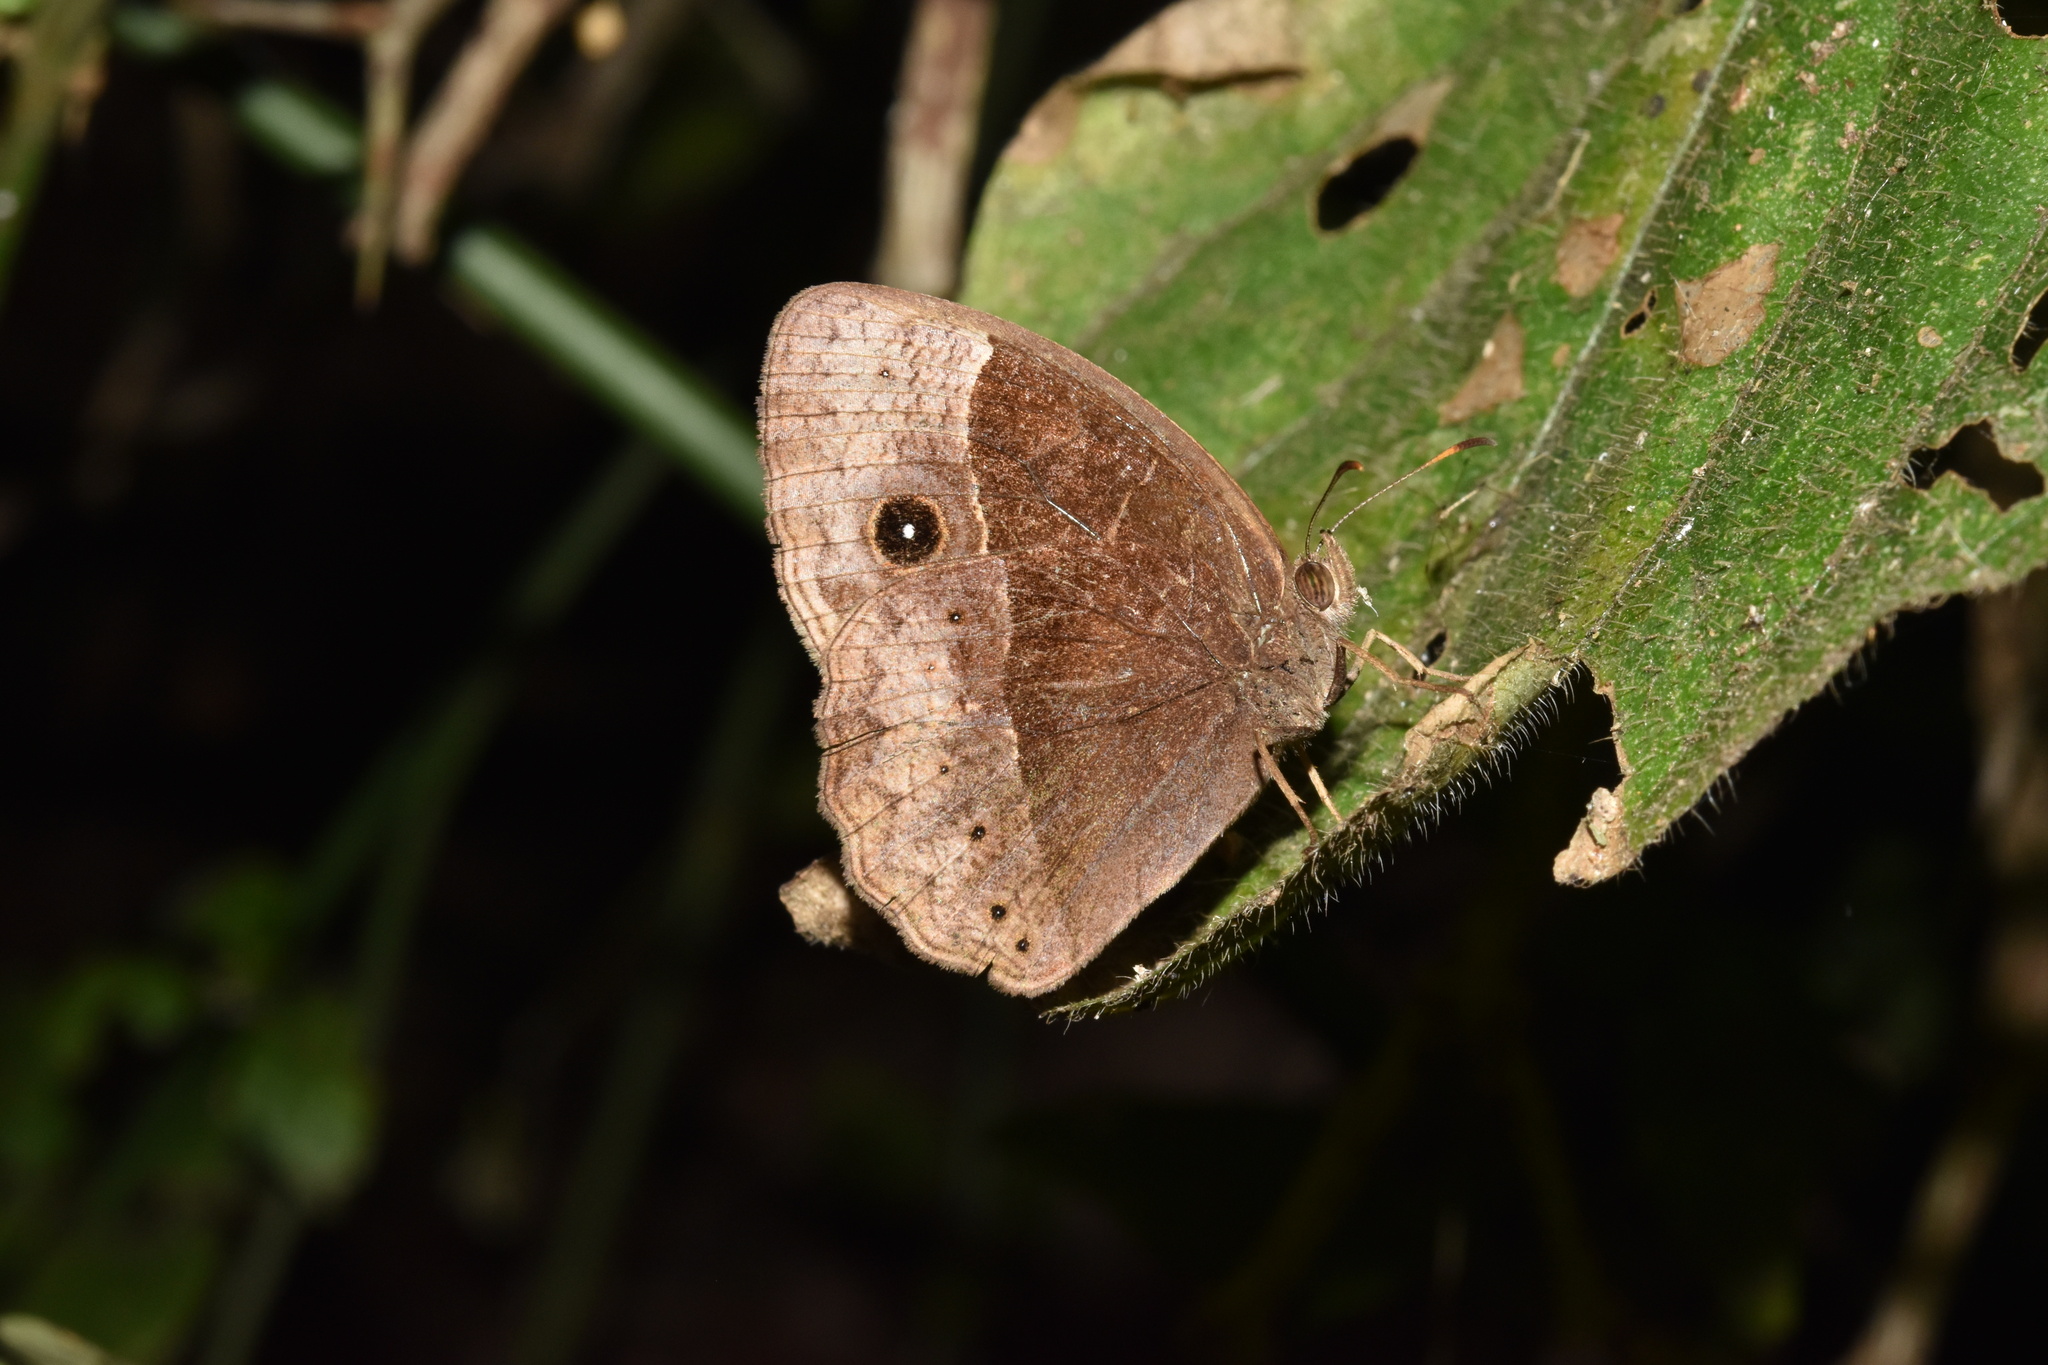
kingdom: Animalia
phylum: Arthropoda
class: Insecta
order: Lepidoptera
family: Nymphalidae
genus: Mycalesis
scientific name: Mycalesis rhacotis
